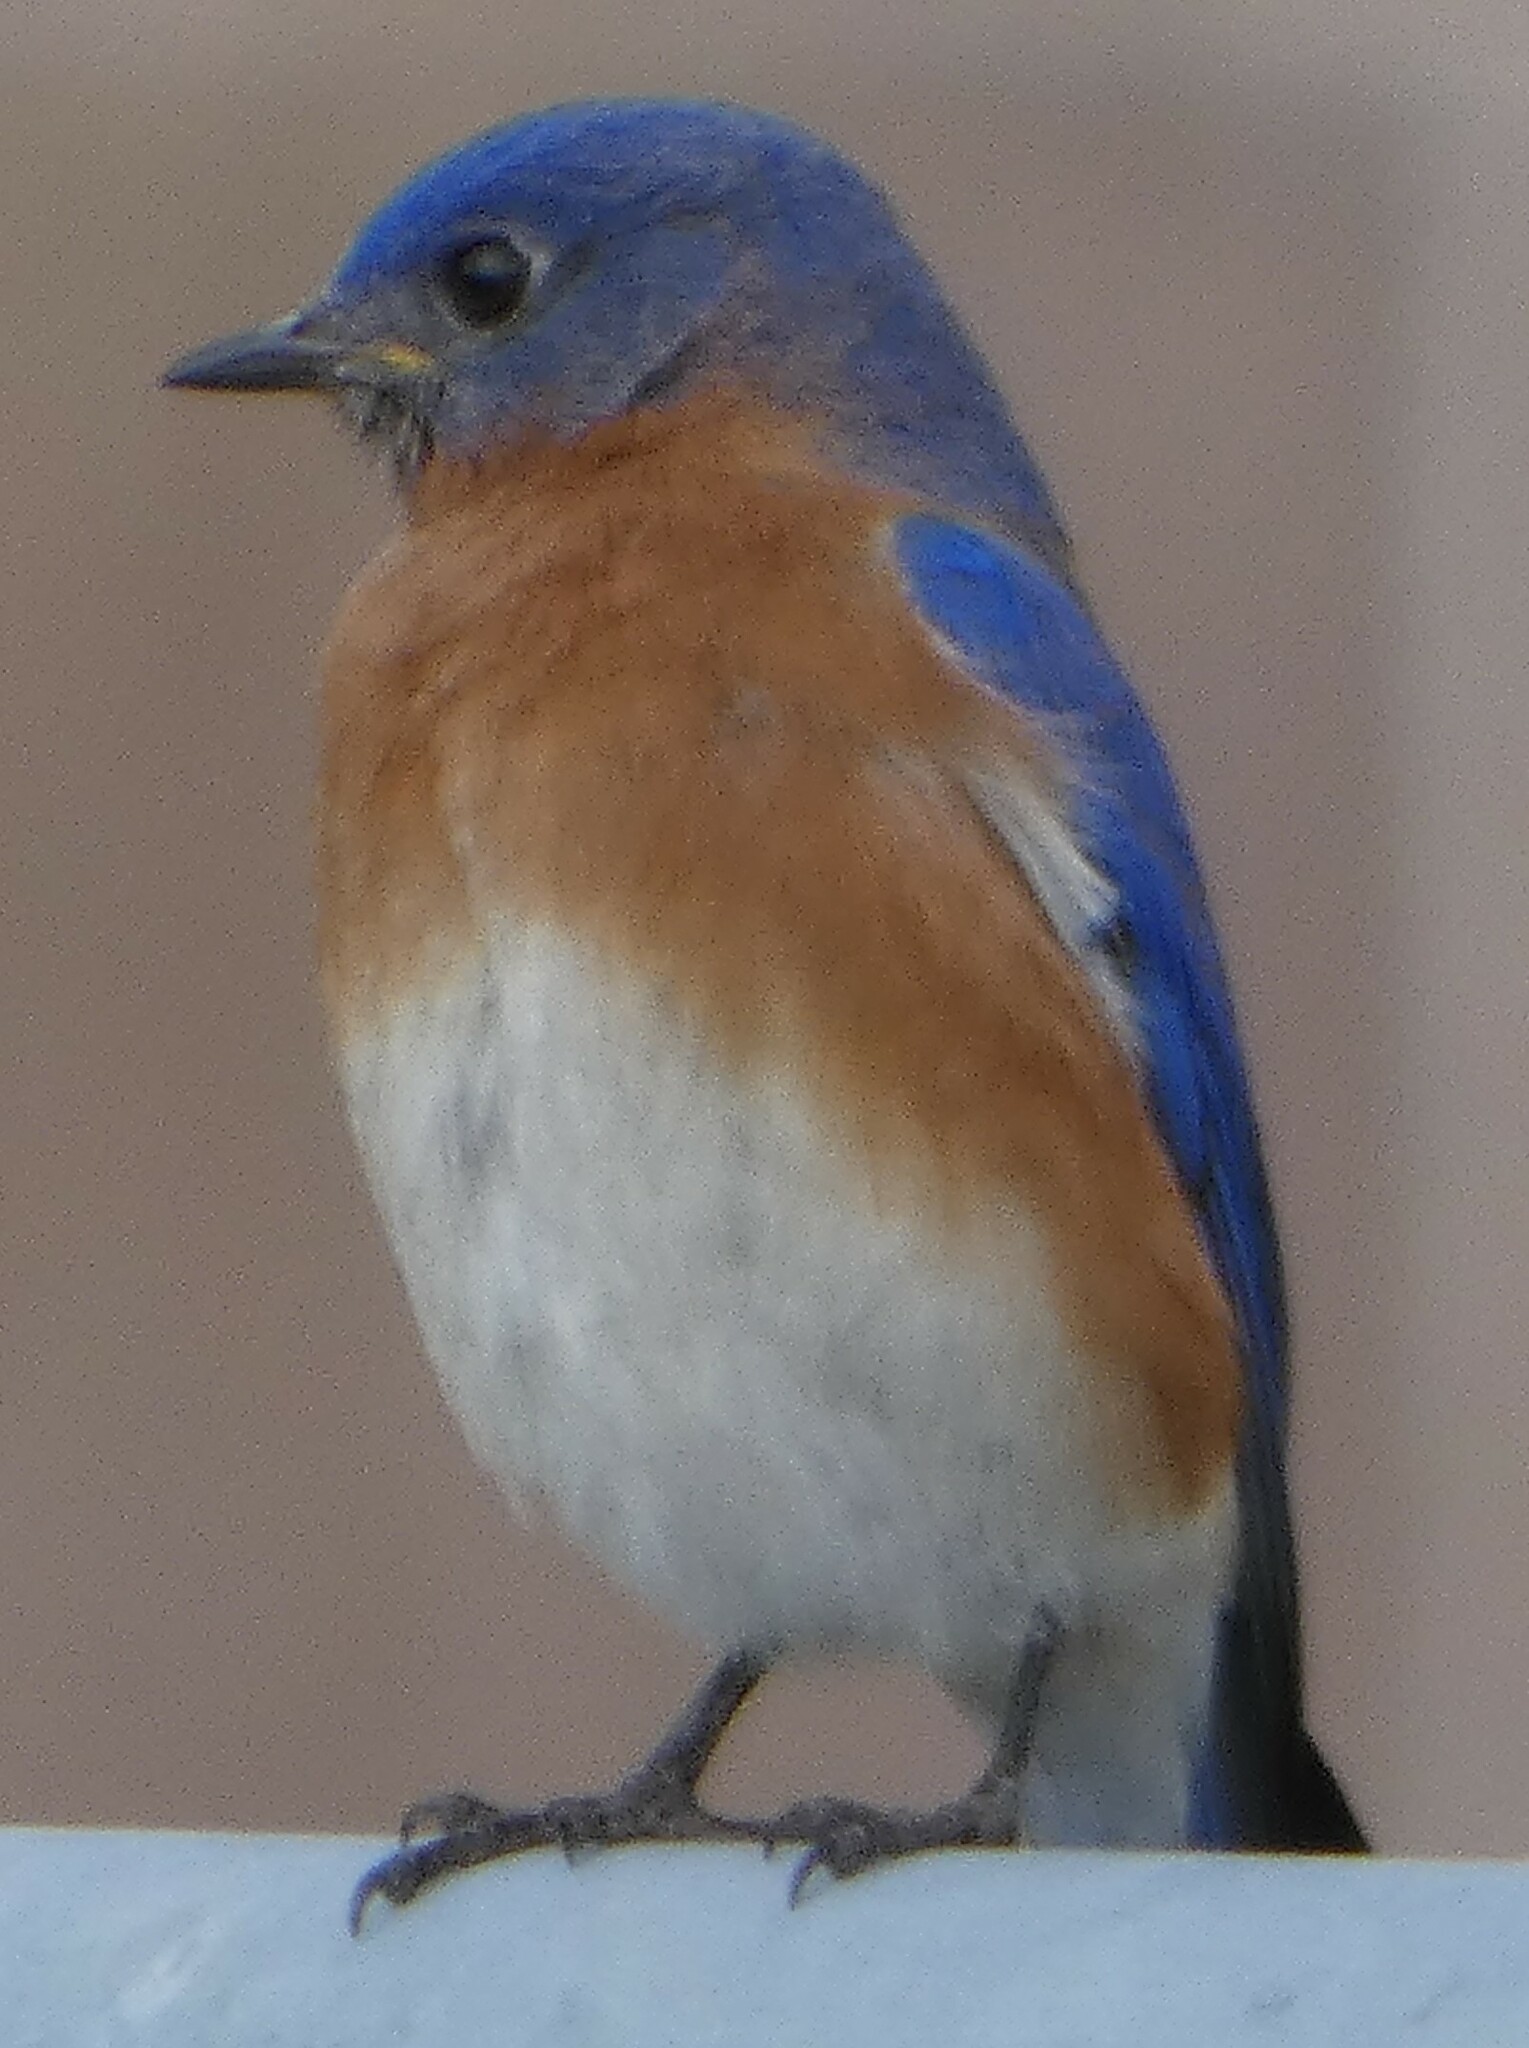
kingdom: Animalia
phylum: Chordata
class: Aves
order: Passeriformes
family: Turdidae
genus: Sialia
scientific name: Sialia sialis
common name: Eastern bluebird
